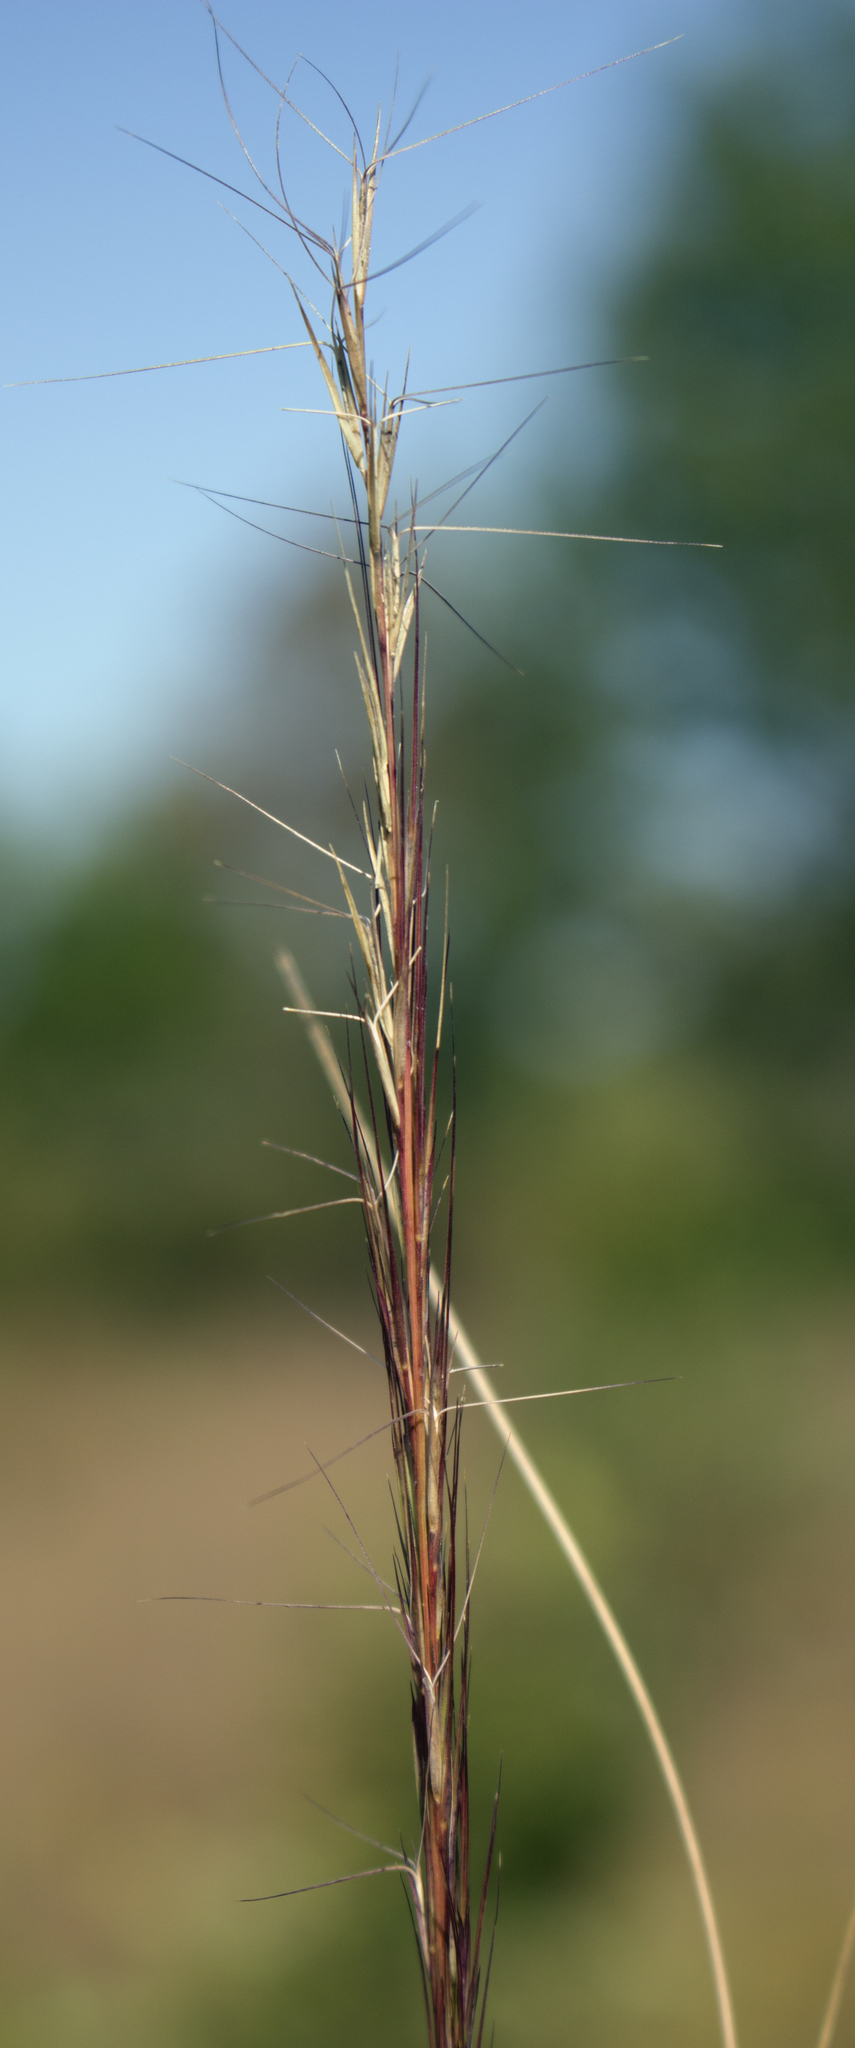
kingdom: Plantae
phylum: Tracheophyta
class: Liliopsida
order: Poales
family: Poaceae
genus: Aristida
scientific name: Aristida purpurascens
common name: Arrow-feather
